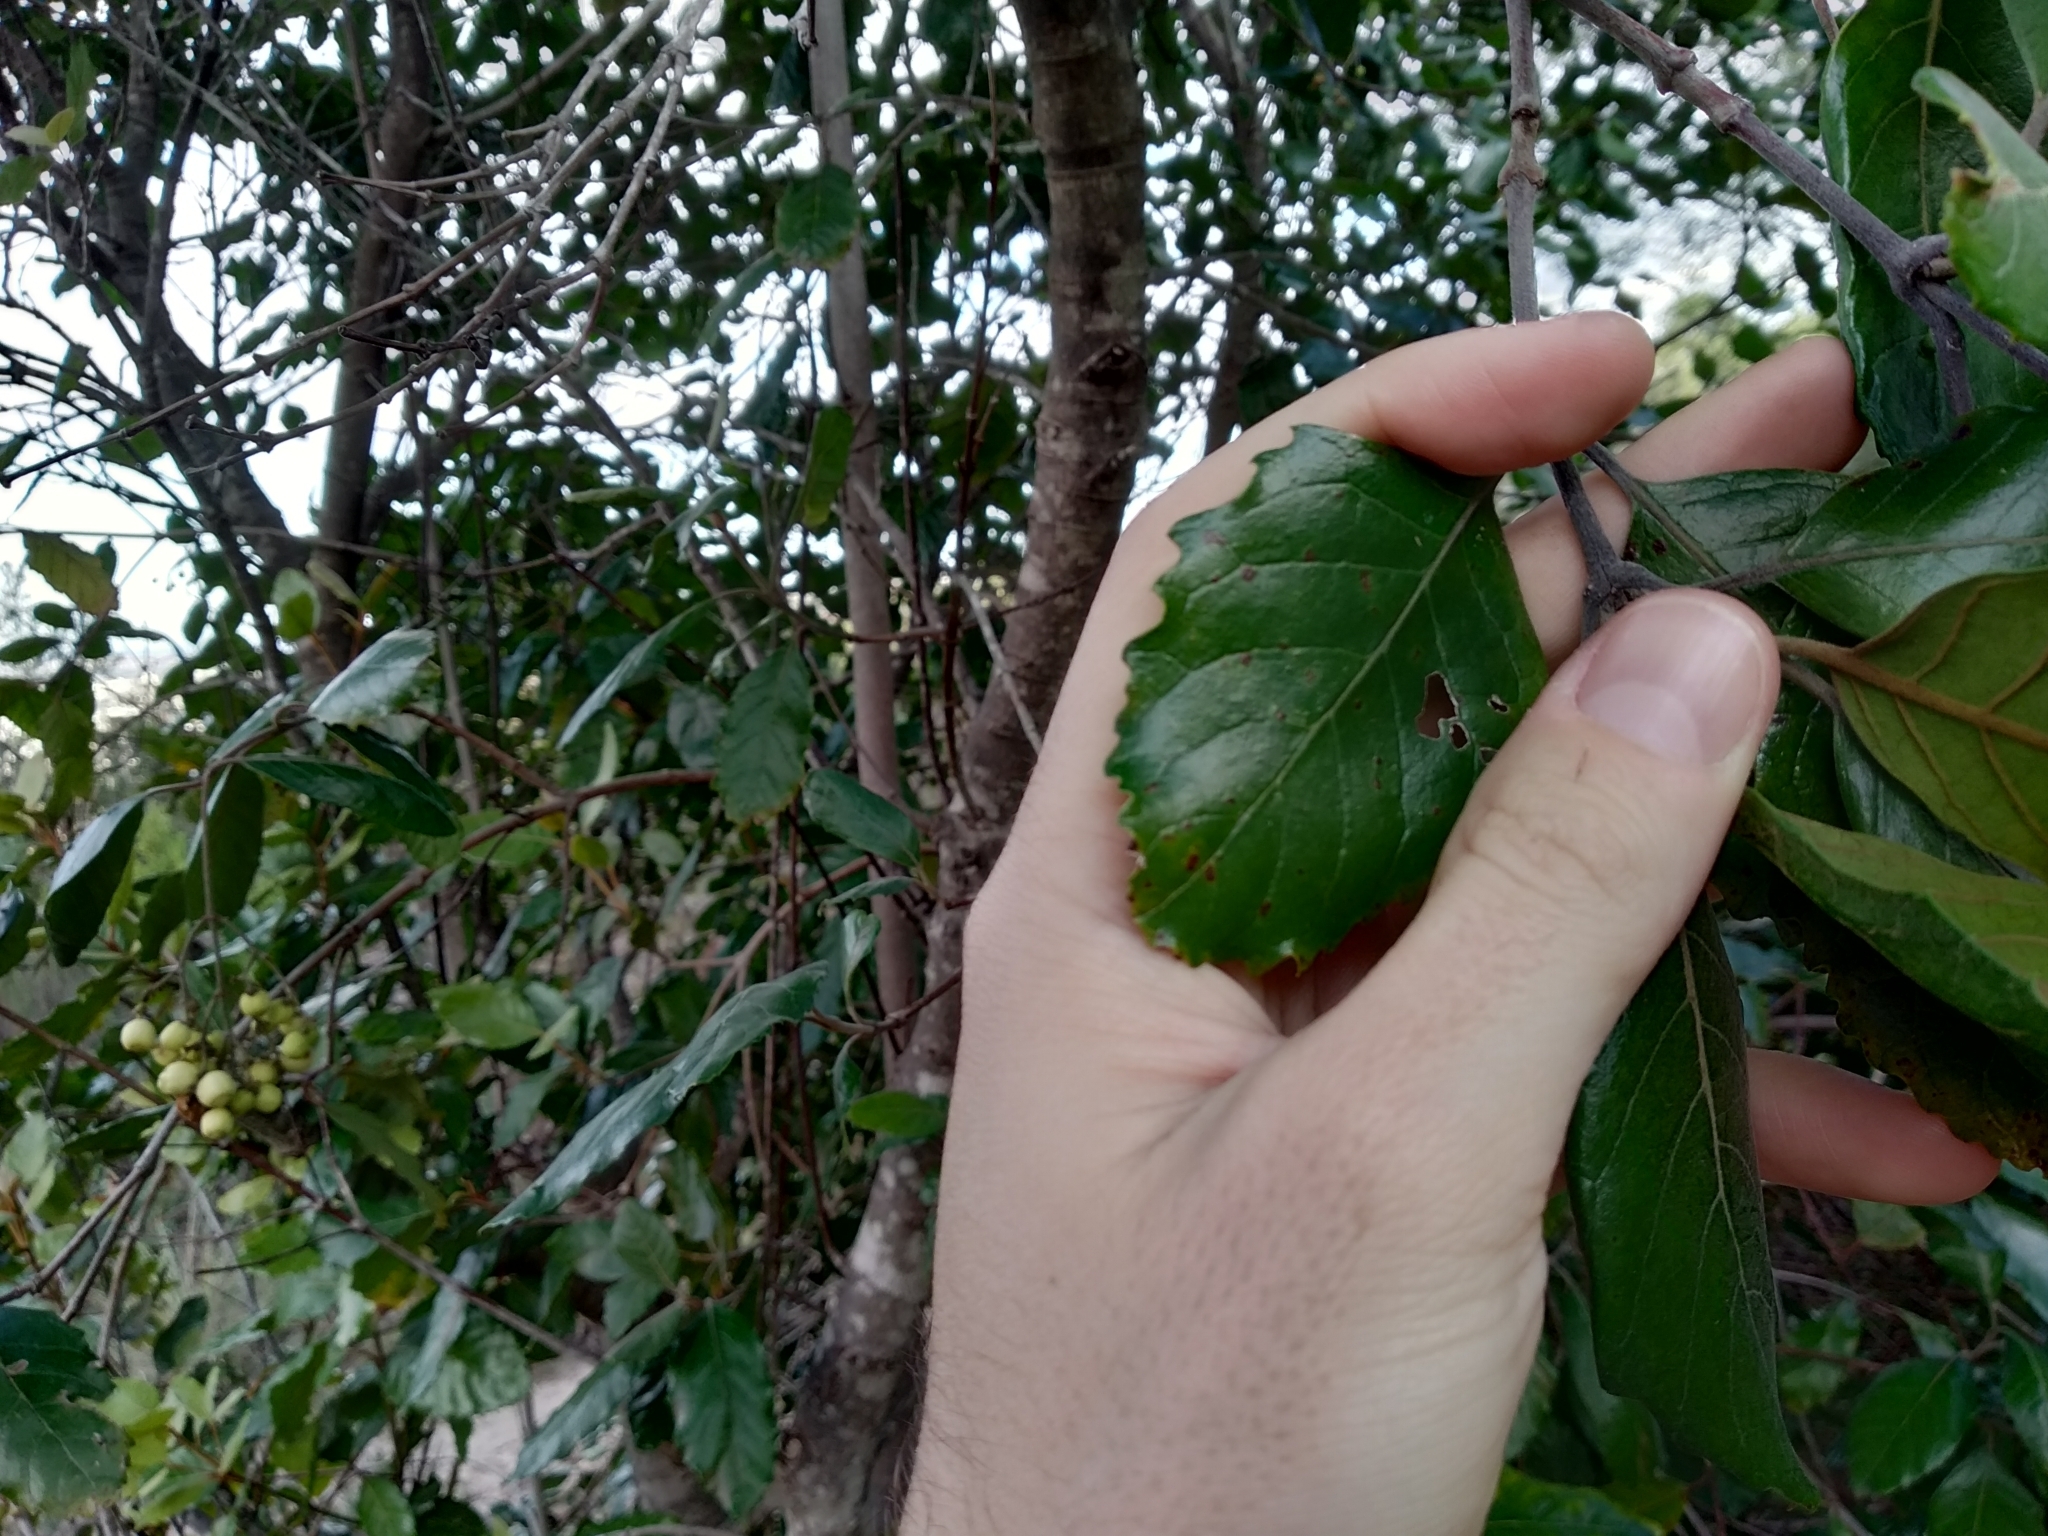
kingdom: Plantae
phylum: Tracheophyta
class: Magnoliopsida
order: Cornales
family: Curtisiaceae
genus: Curtisia
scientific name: Curtisia dentata
